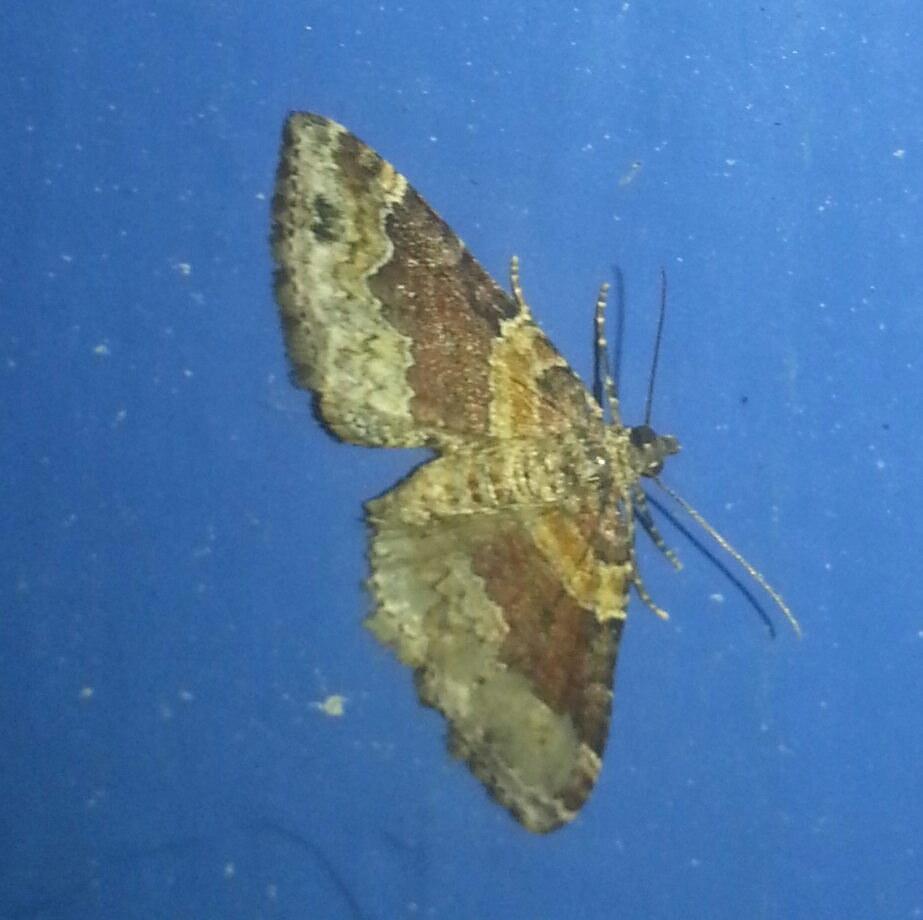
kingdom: Animalia
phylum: Arthropoda
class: Insecta
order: Lepidoptera
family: Geometridae
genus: Xanthorhoe
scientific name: Xanthorhoe ferrugata
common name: Dark-barred twin-spot carpet
